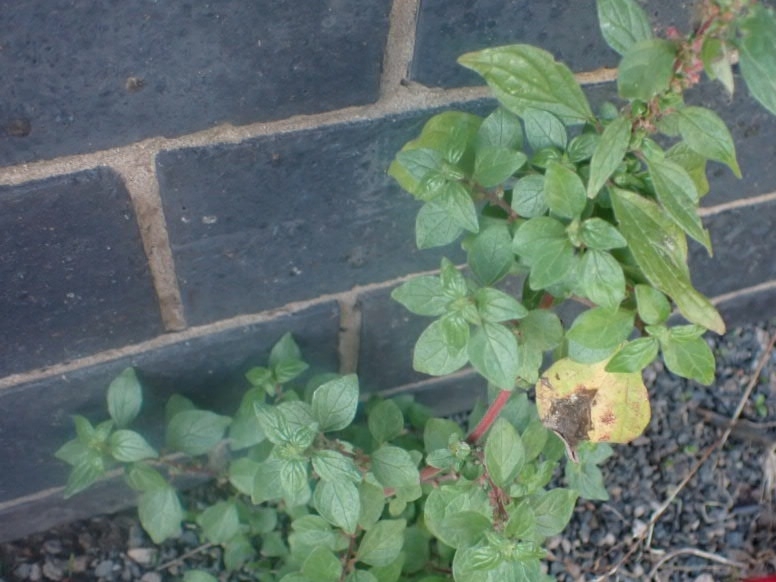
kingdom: Plantae
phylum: Tracheophyta
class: Magnoliopsida
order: Rosales
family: Urticaceae
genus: Parietaria
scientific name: Parietaria judaica
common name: Pellitory-of-the-wall
